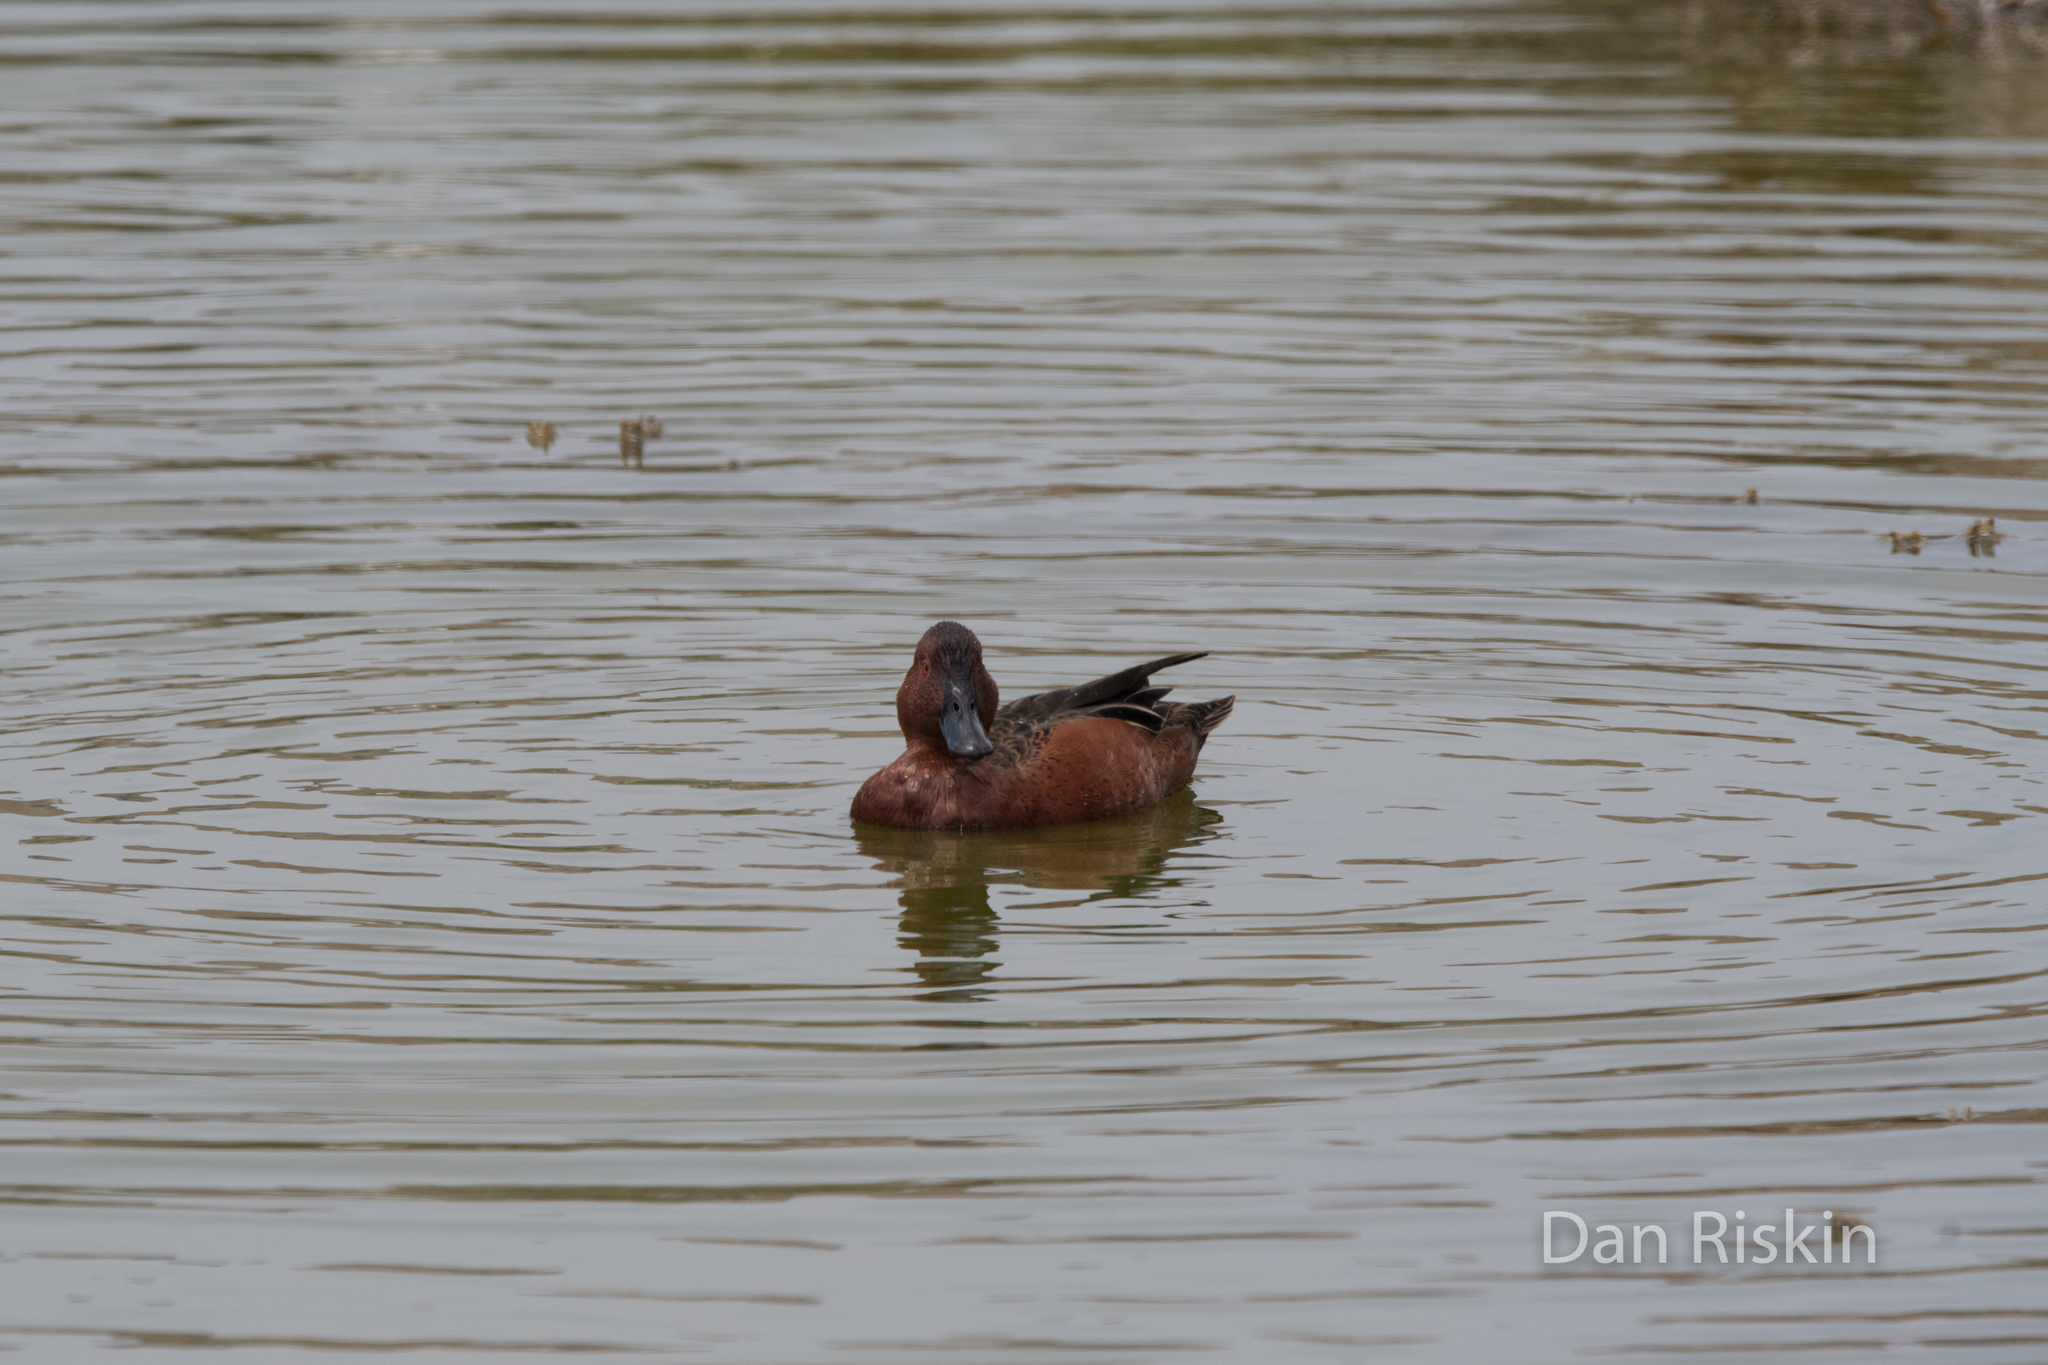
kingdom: Animalia
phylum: Chordata
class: Aves
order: Anseriformes
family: Anatidae
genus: Spatula
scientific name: Spatula cyanoptera
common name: Cinnamon teal
